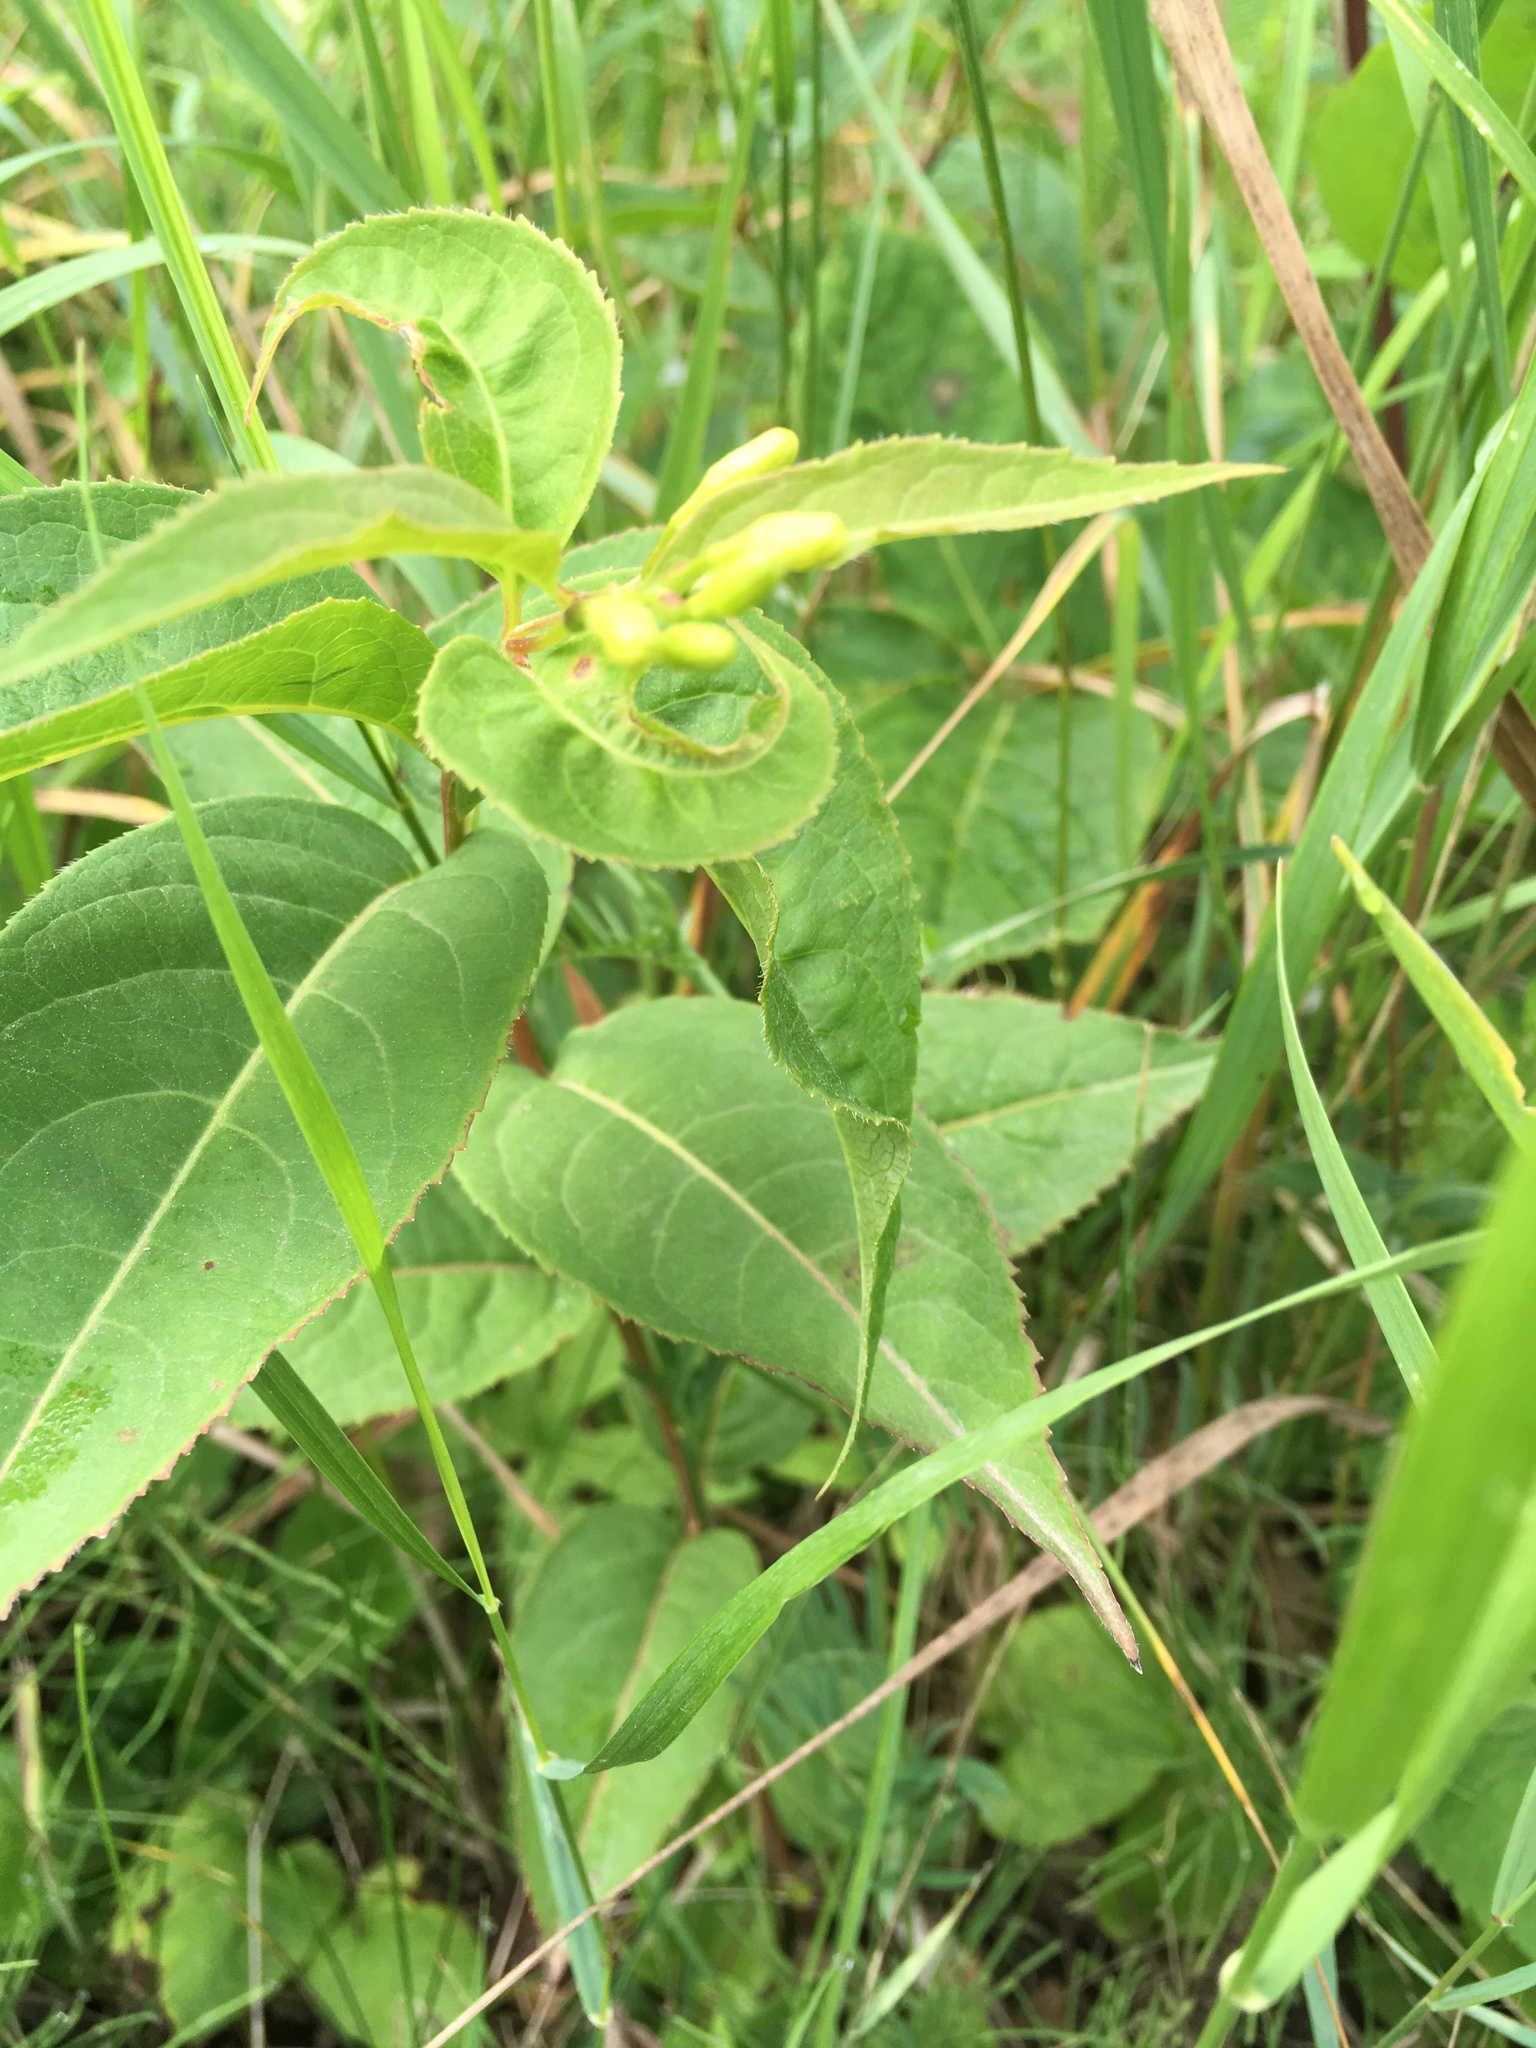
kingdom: Plantae
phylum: Tracheophyta
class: Magnoliopsida
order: Dipsacales
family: Caprifoliaceae
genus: Diervilla
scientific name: Diervilla lonicera
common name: Bush-honeysuckle
